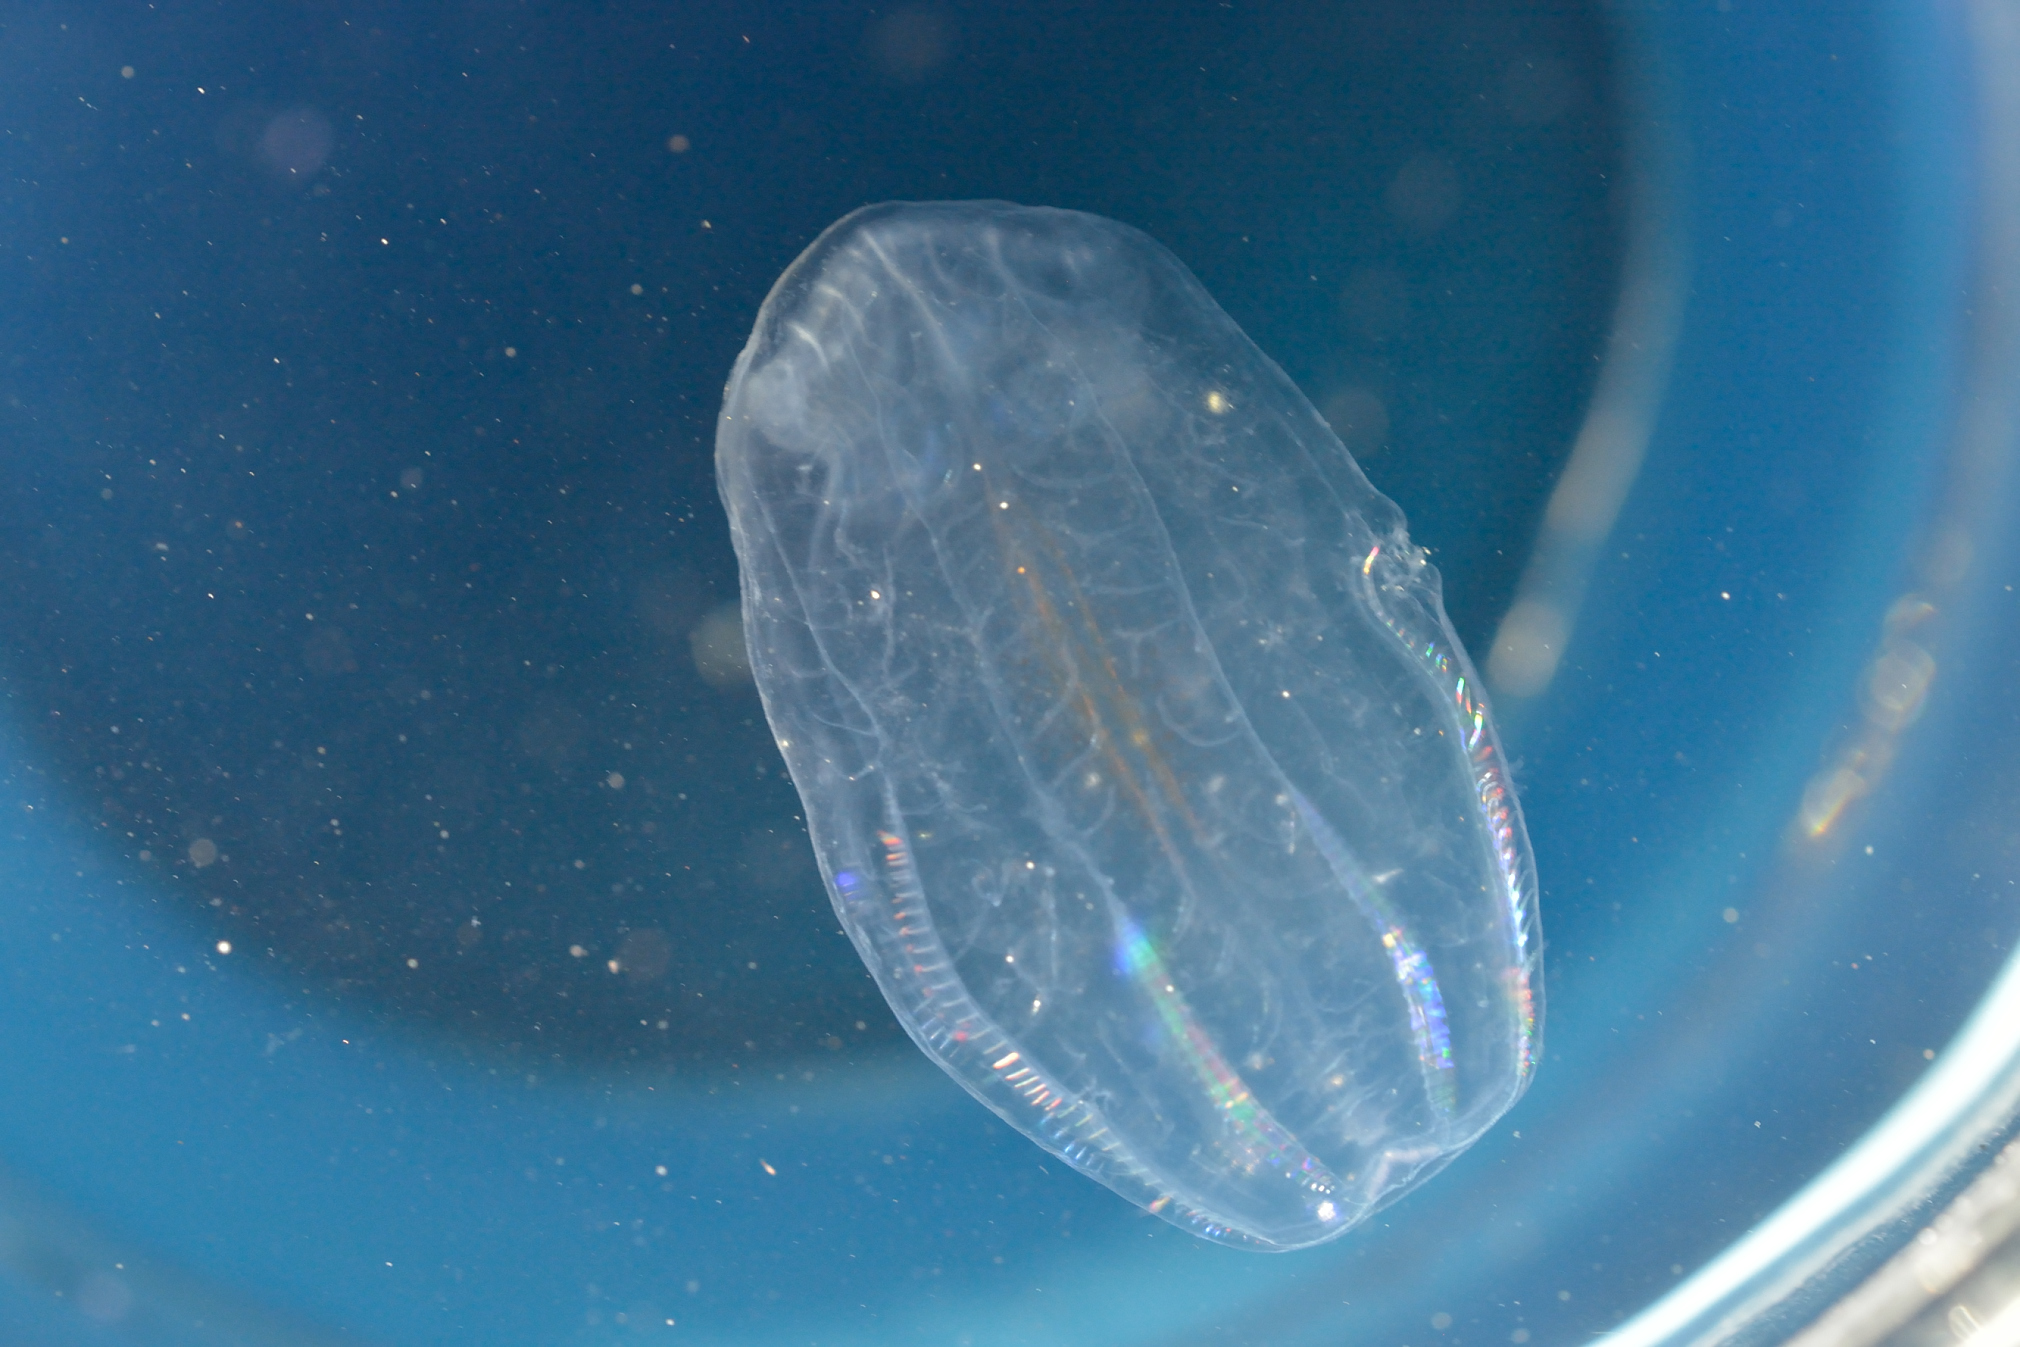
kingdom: Animalia
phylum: Ctenophora
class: Nuda
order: Beroida
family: Beroidae
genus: Beroe
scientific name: Beroe mitrata
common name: Sea mitre
